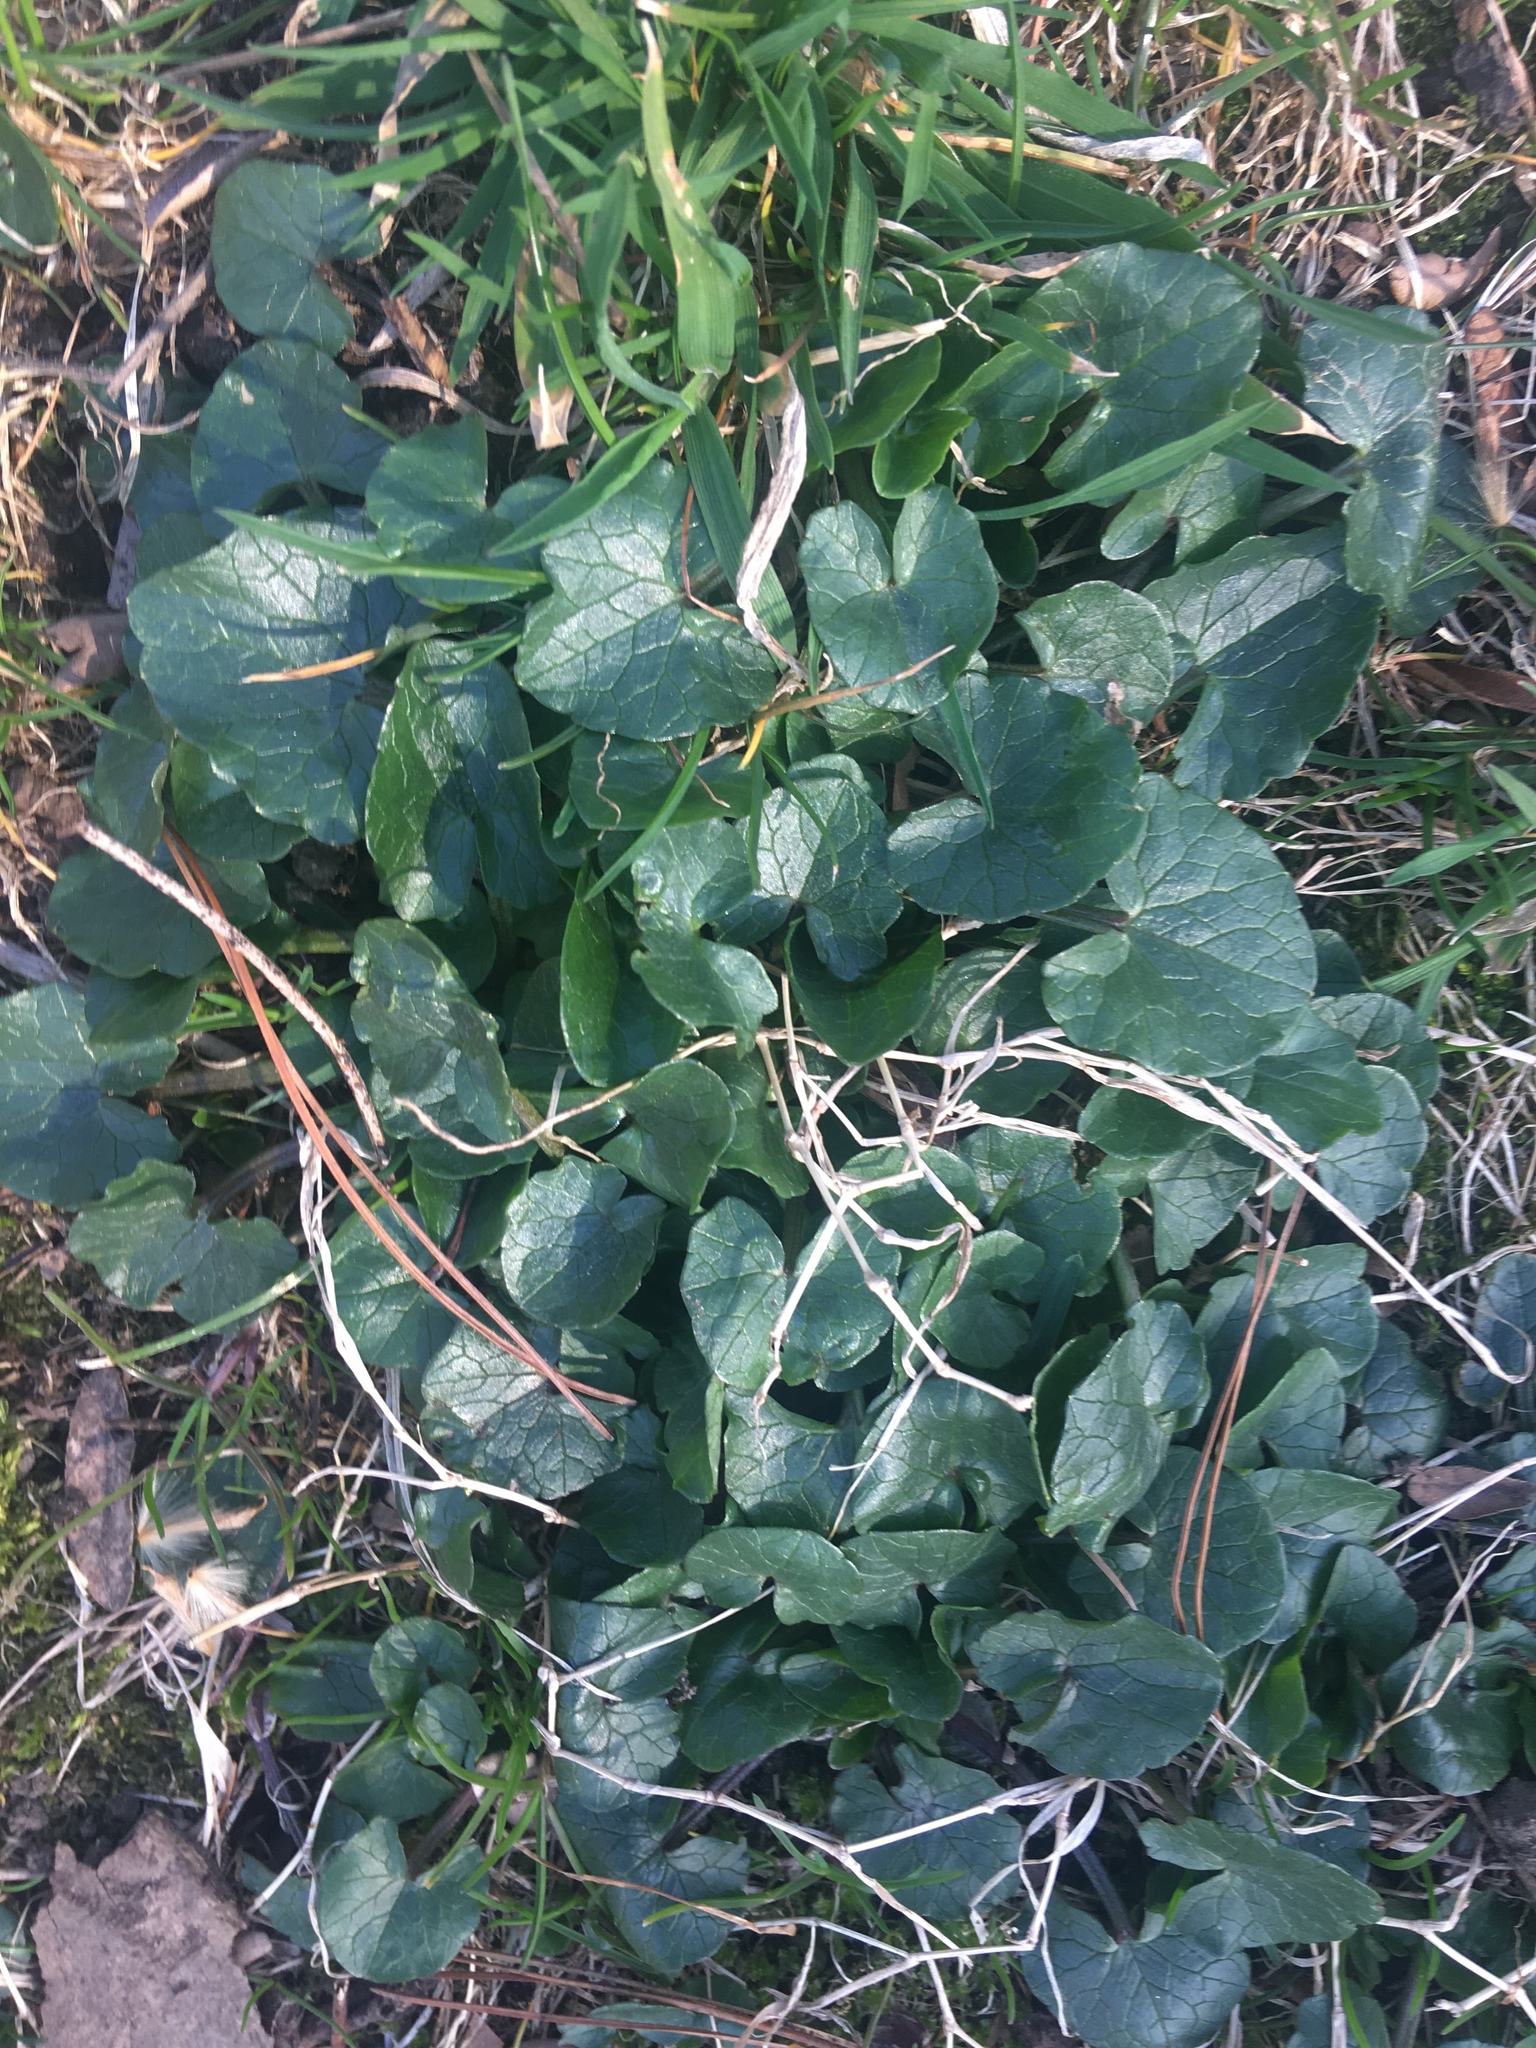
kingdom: Plantae
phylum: Tracheophyta
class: Magnoliopsida
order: Ranunculales
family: Ranunculaceae
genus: Ficaria
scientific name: Ficaria verna
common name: Lesser celandine
